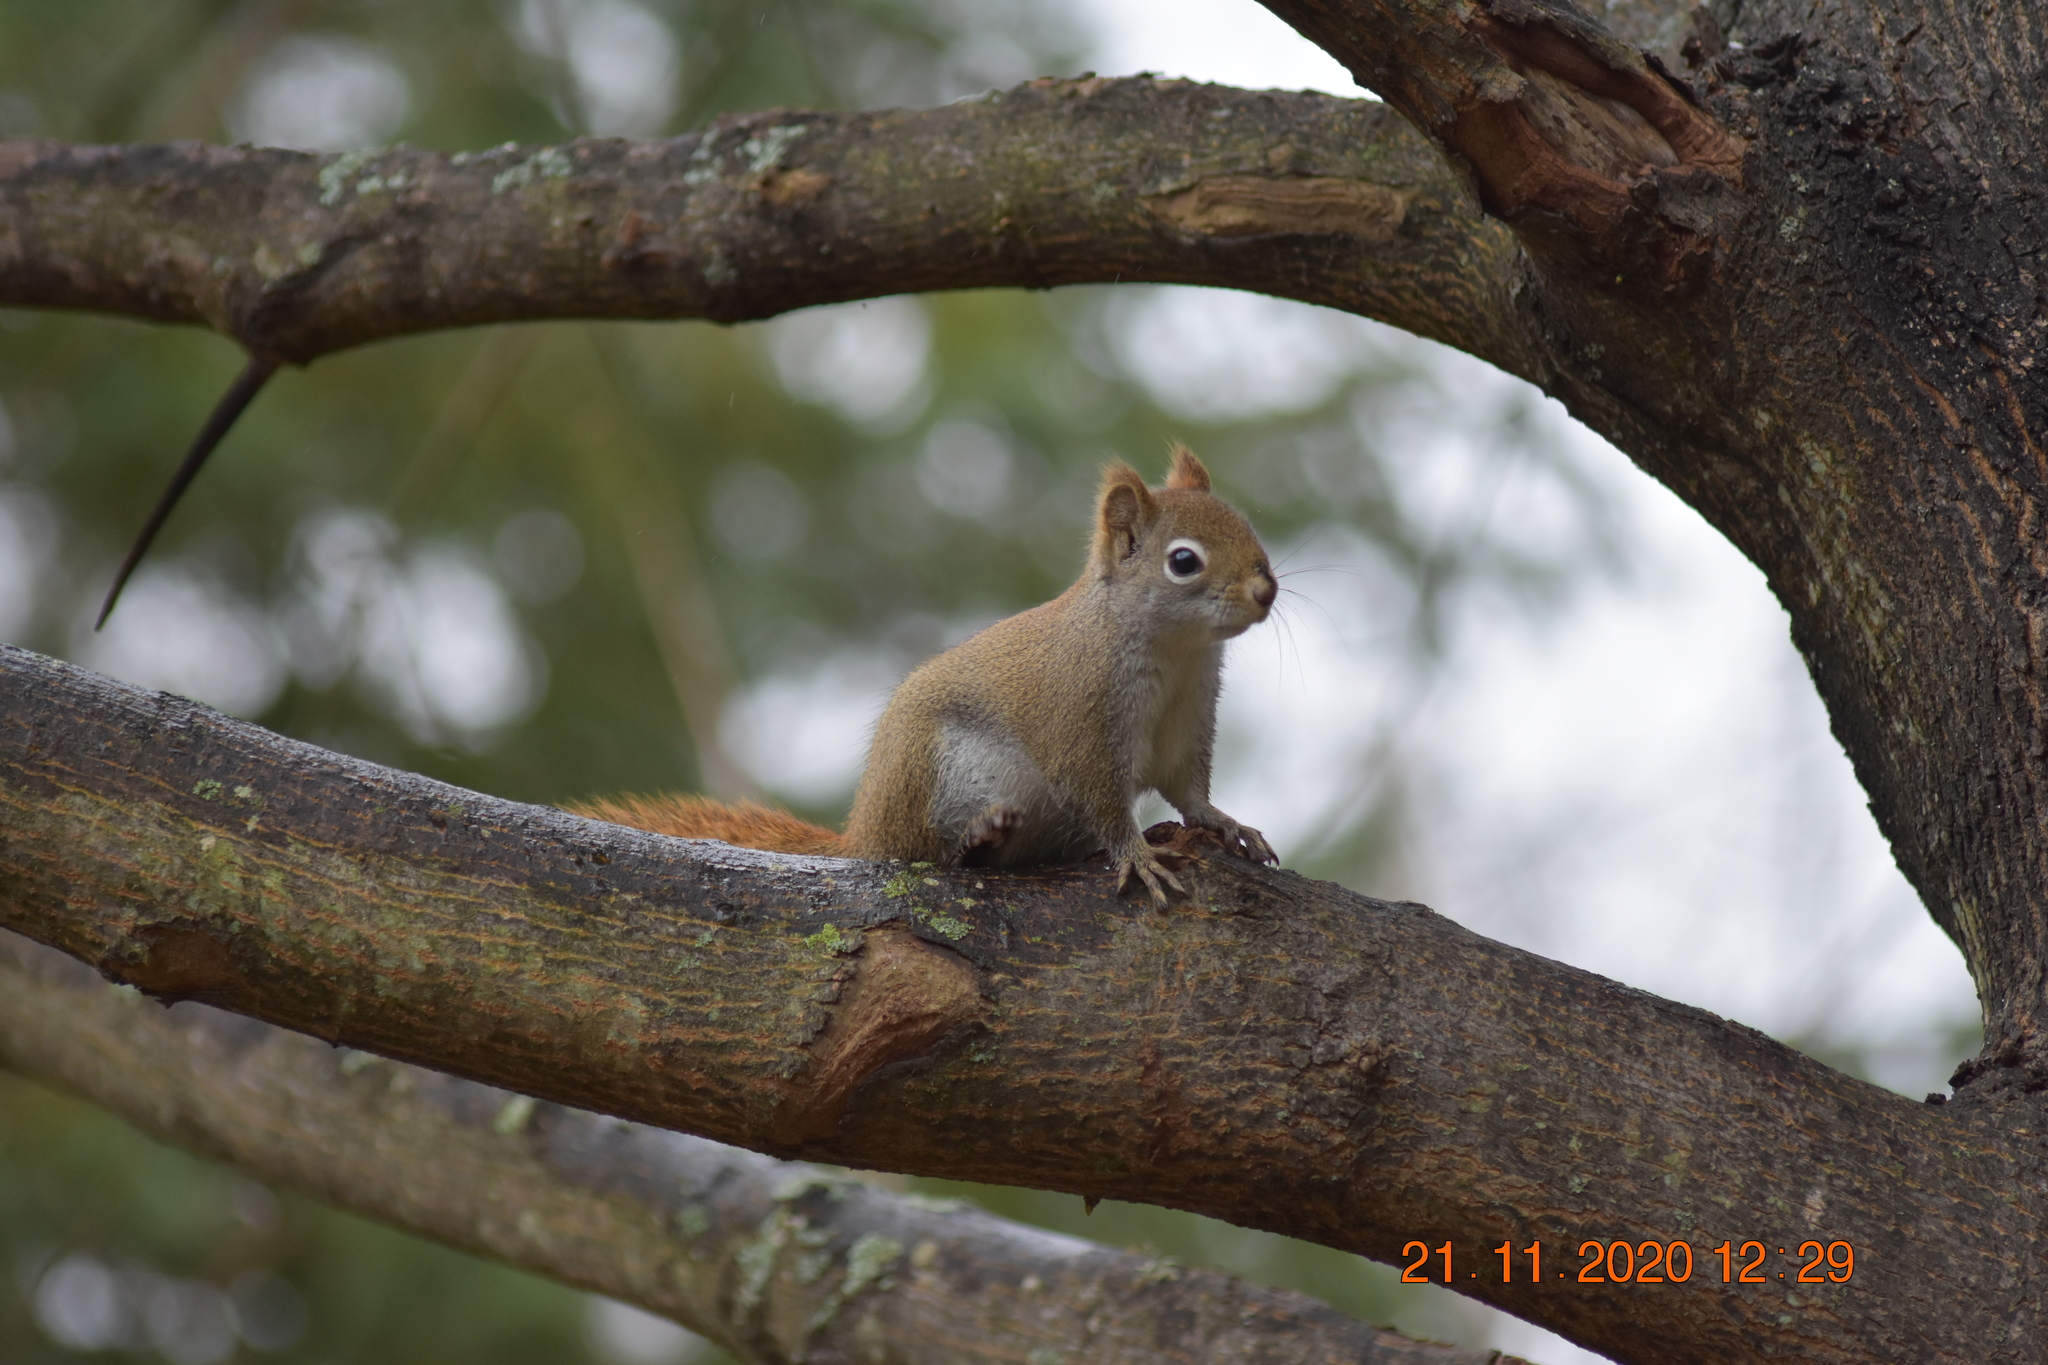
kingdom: Animalia
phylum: Chordata
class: Mammalia
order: Rodentia
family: Sciuridae
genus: Tamiasciurus
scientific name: Tamiasciurus hudsonicus
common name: Red squirrel
